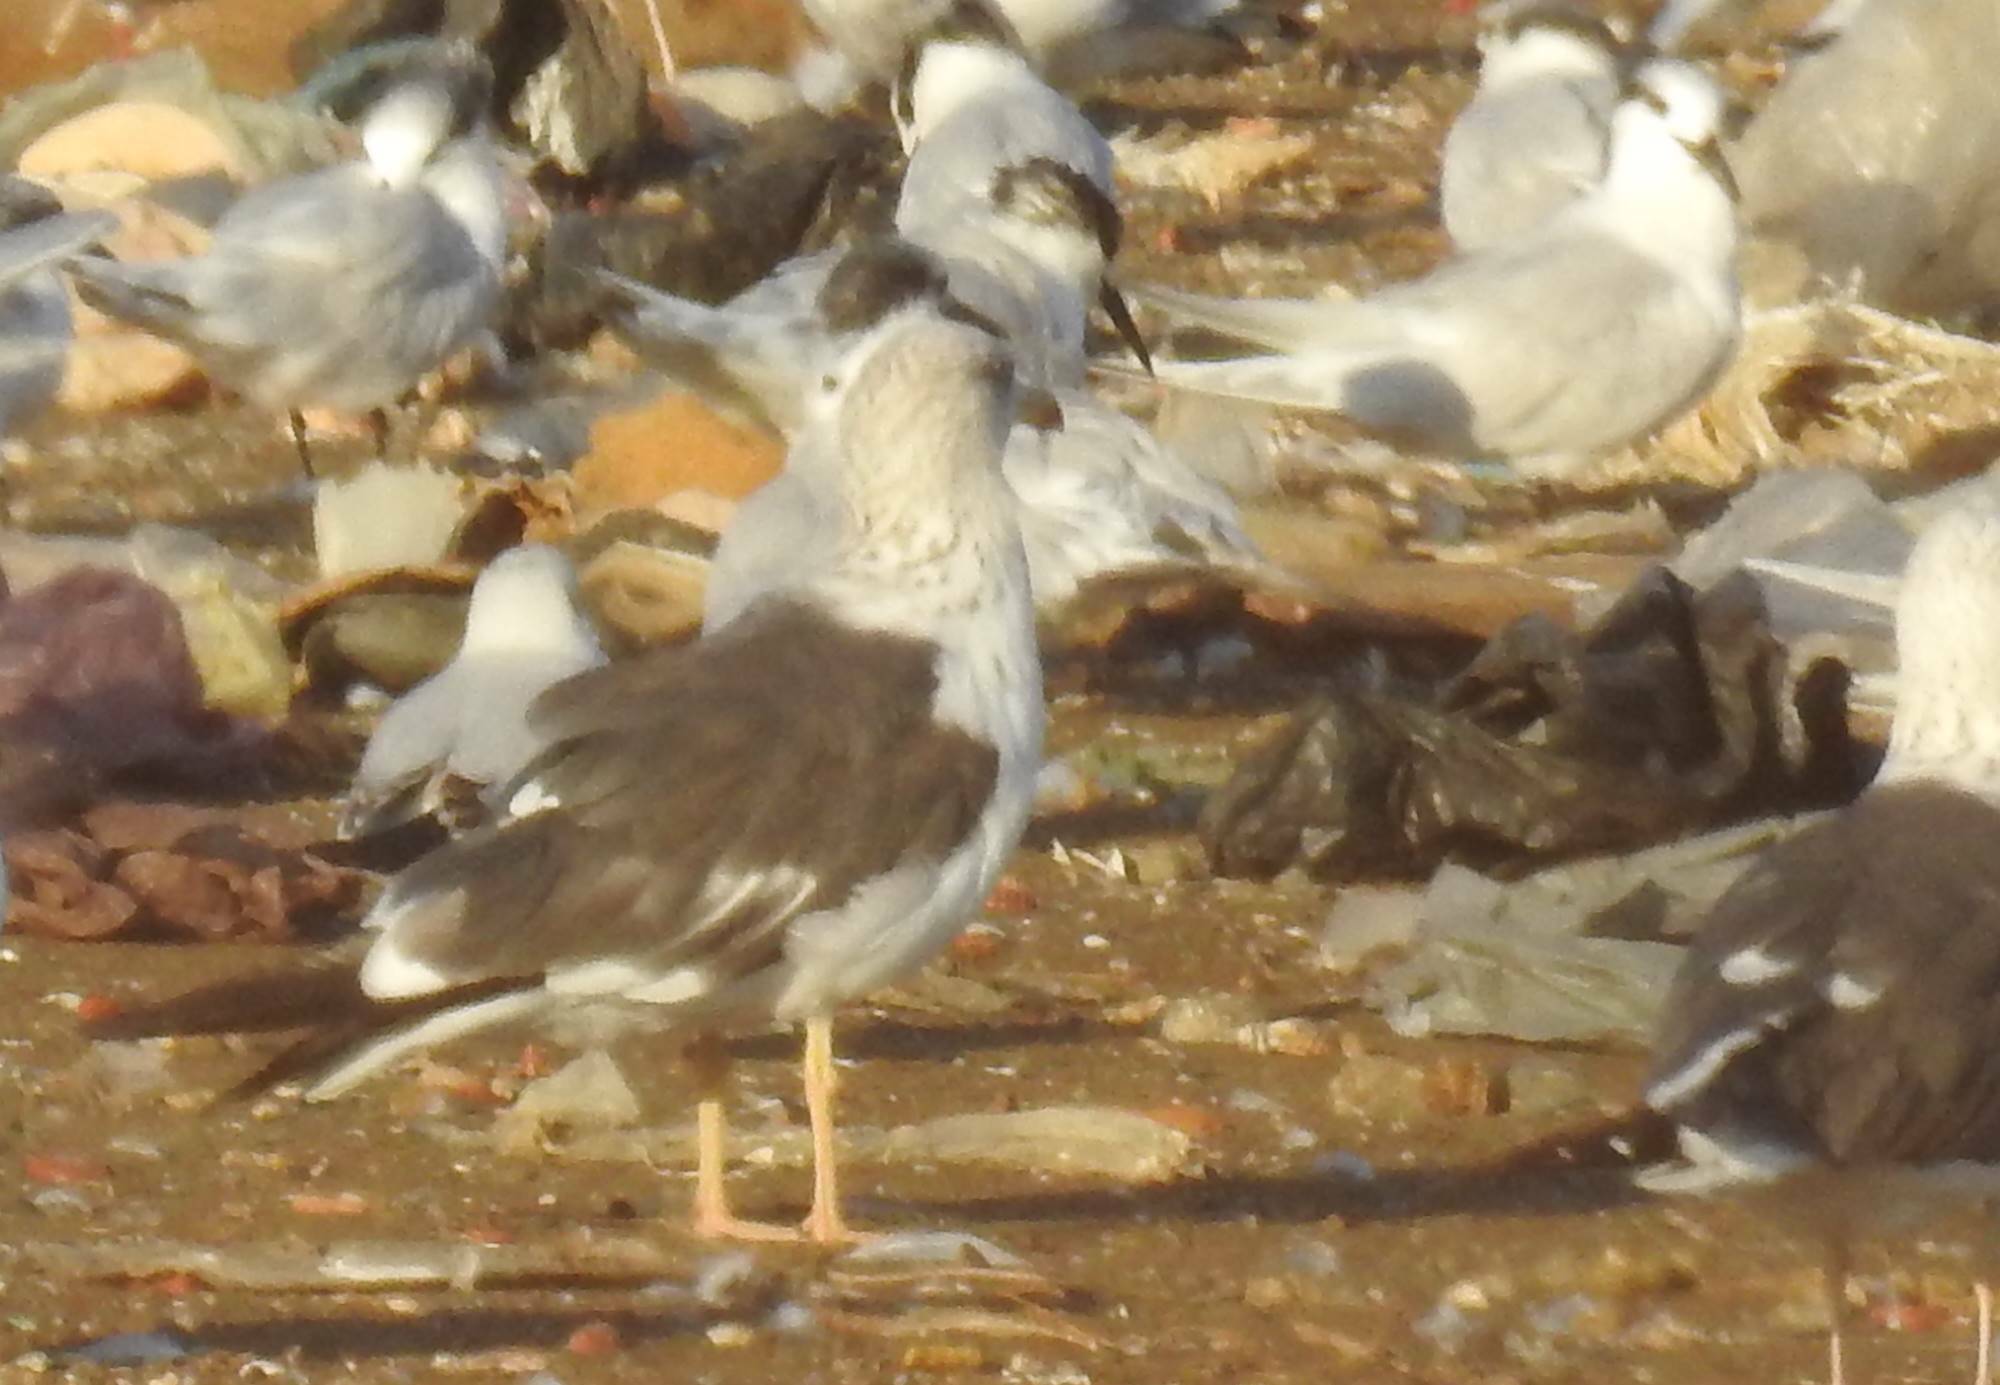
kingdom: Animalia
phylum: Chordata
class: Aves
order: Charadriiformes
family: Laridae
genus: Larus
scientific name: Larus fuscus
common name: Lesser black-backed gull
